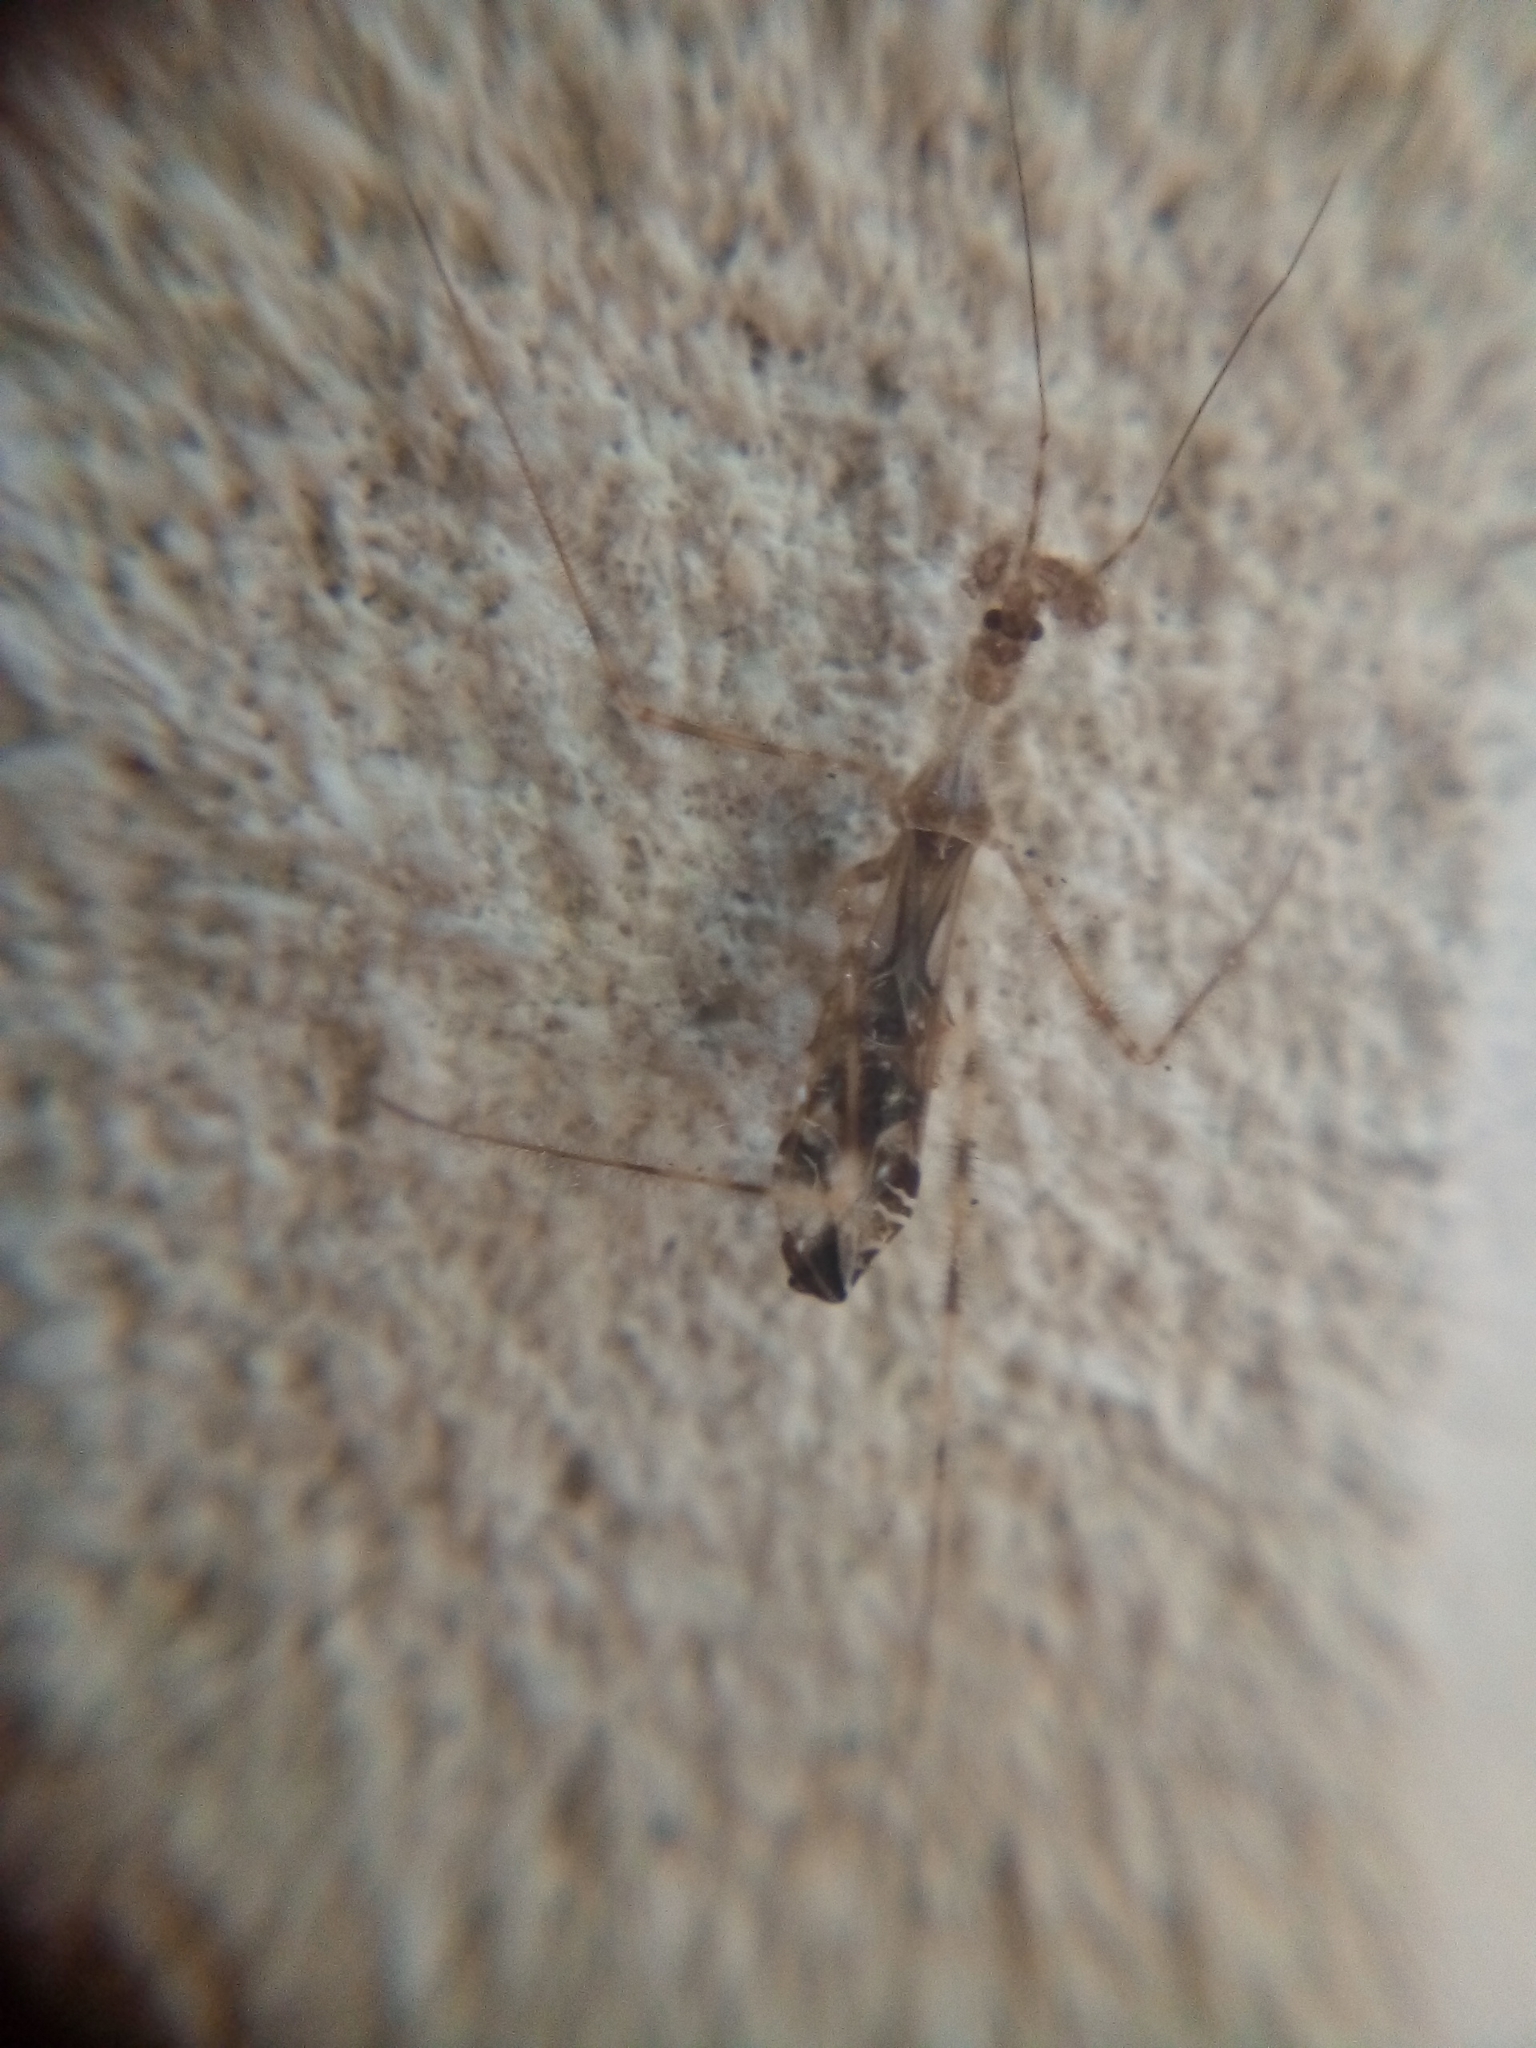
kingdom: Animalia
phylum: Arthropoda
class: Insecta
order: Hemiptera
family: Reduviidae
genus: Stenolemus
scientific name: Stenolemus fraterculus
